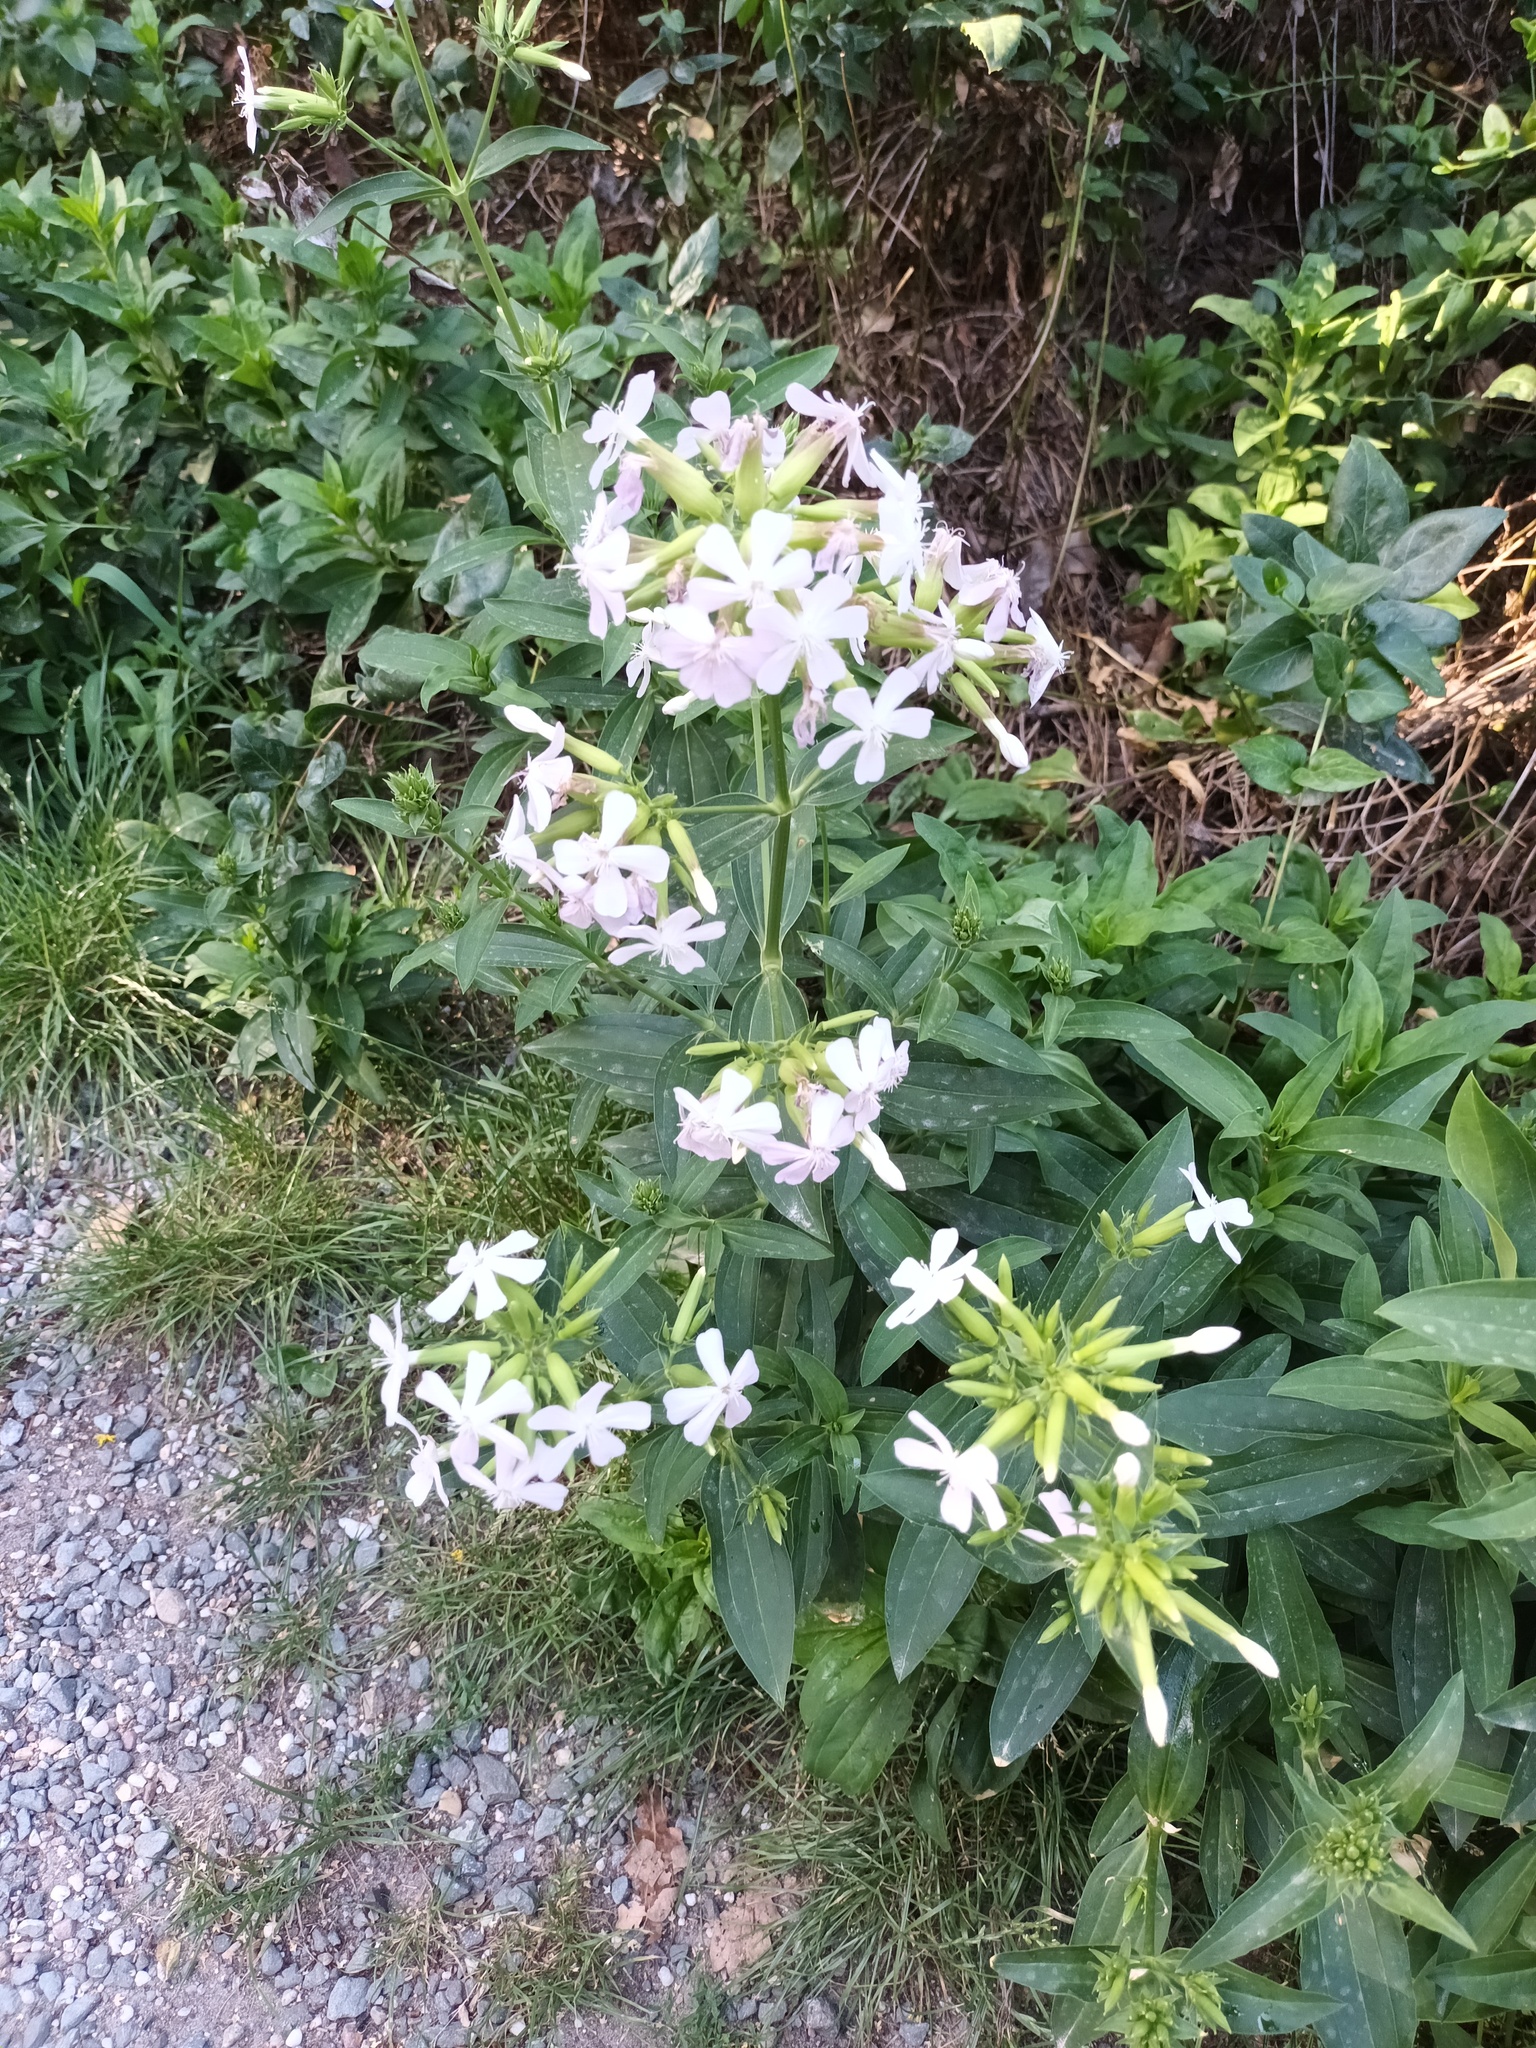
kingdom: Plantae
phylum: Tracheophyta
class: Magnoliopsida
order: Caryophyllales
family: Caryophyllaceae
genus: Saponaria
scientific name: Saponaria officinalis
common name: Soapwort
